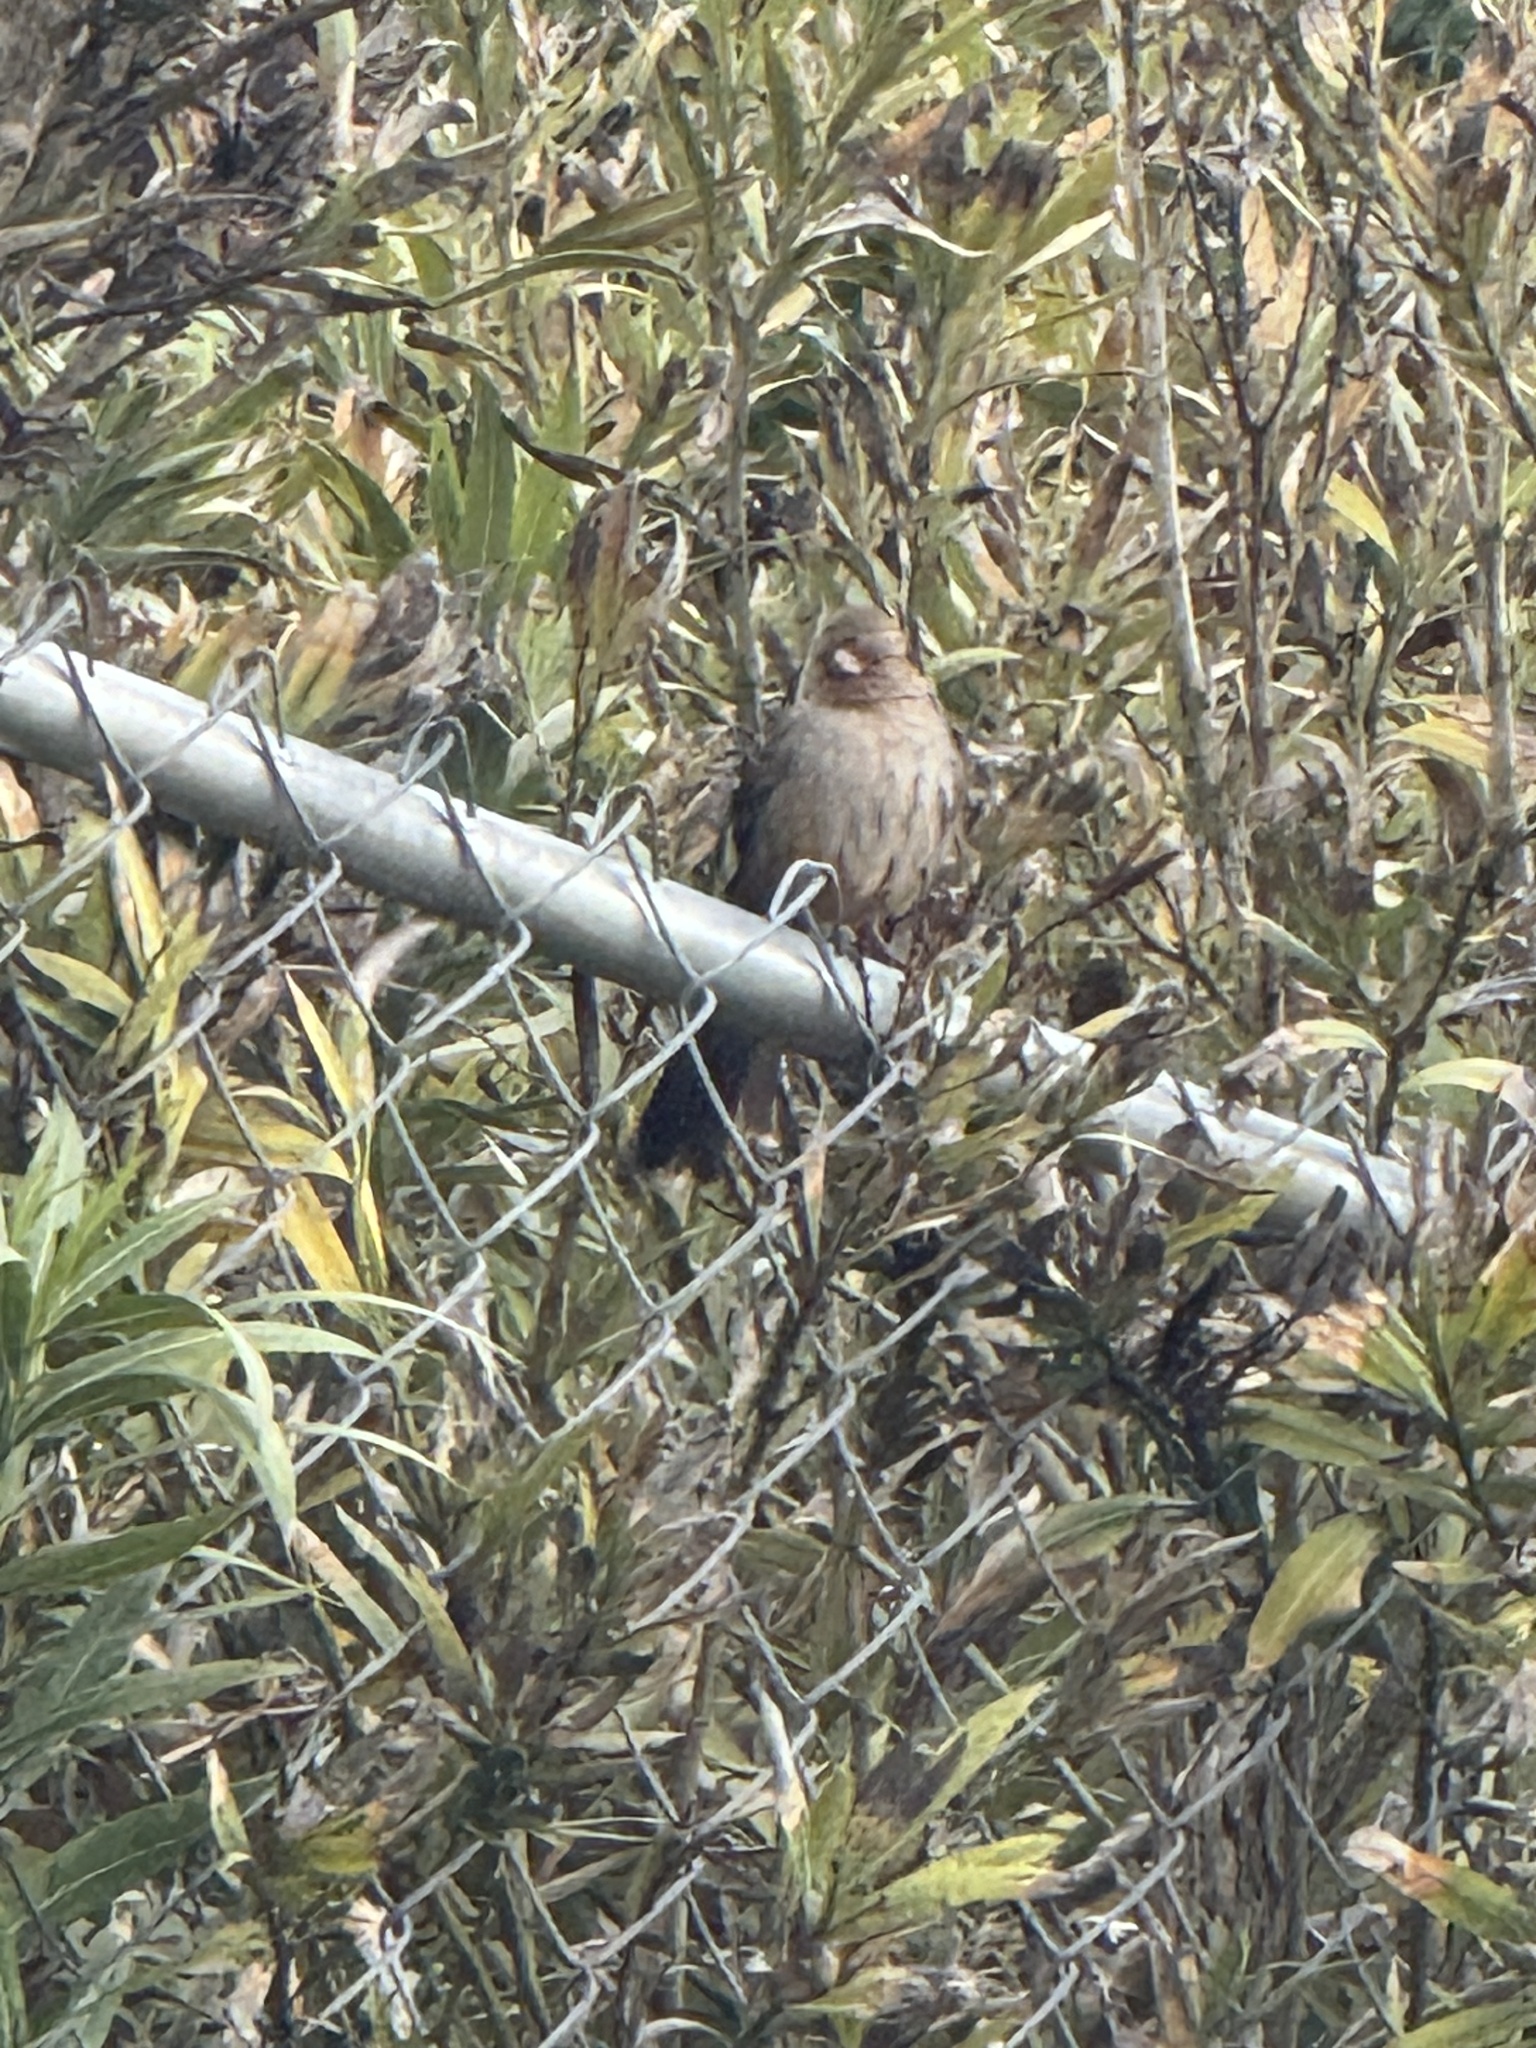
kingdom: Animalia
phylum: Chordata
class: Aves
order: Passeriformes
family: Passerellidae
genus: Melozone
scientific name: Melozone crissalis
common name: California towhee
